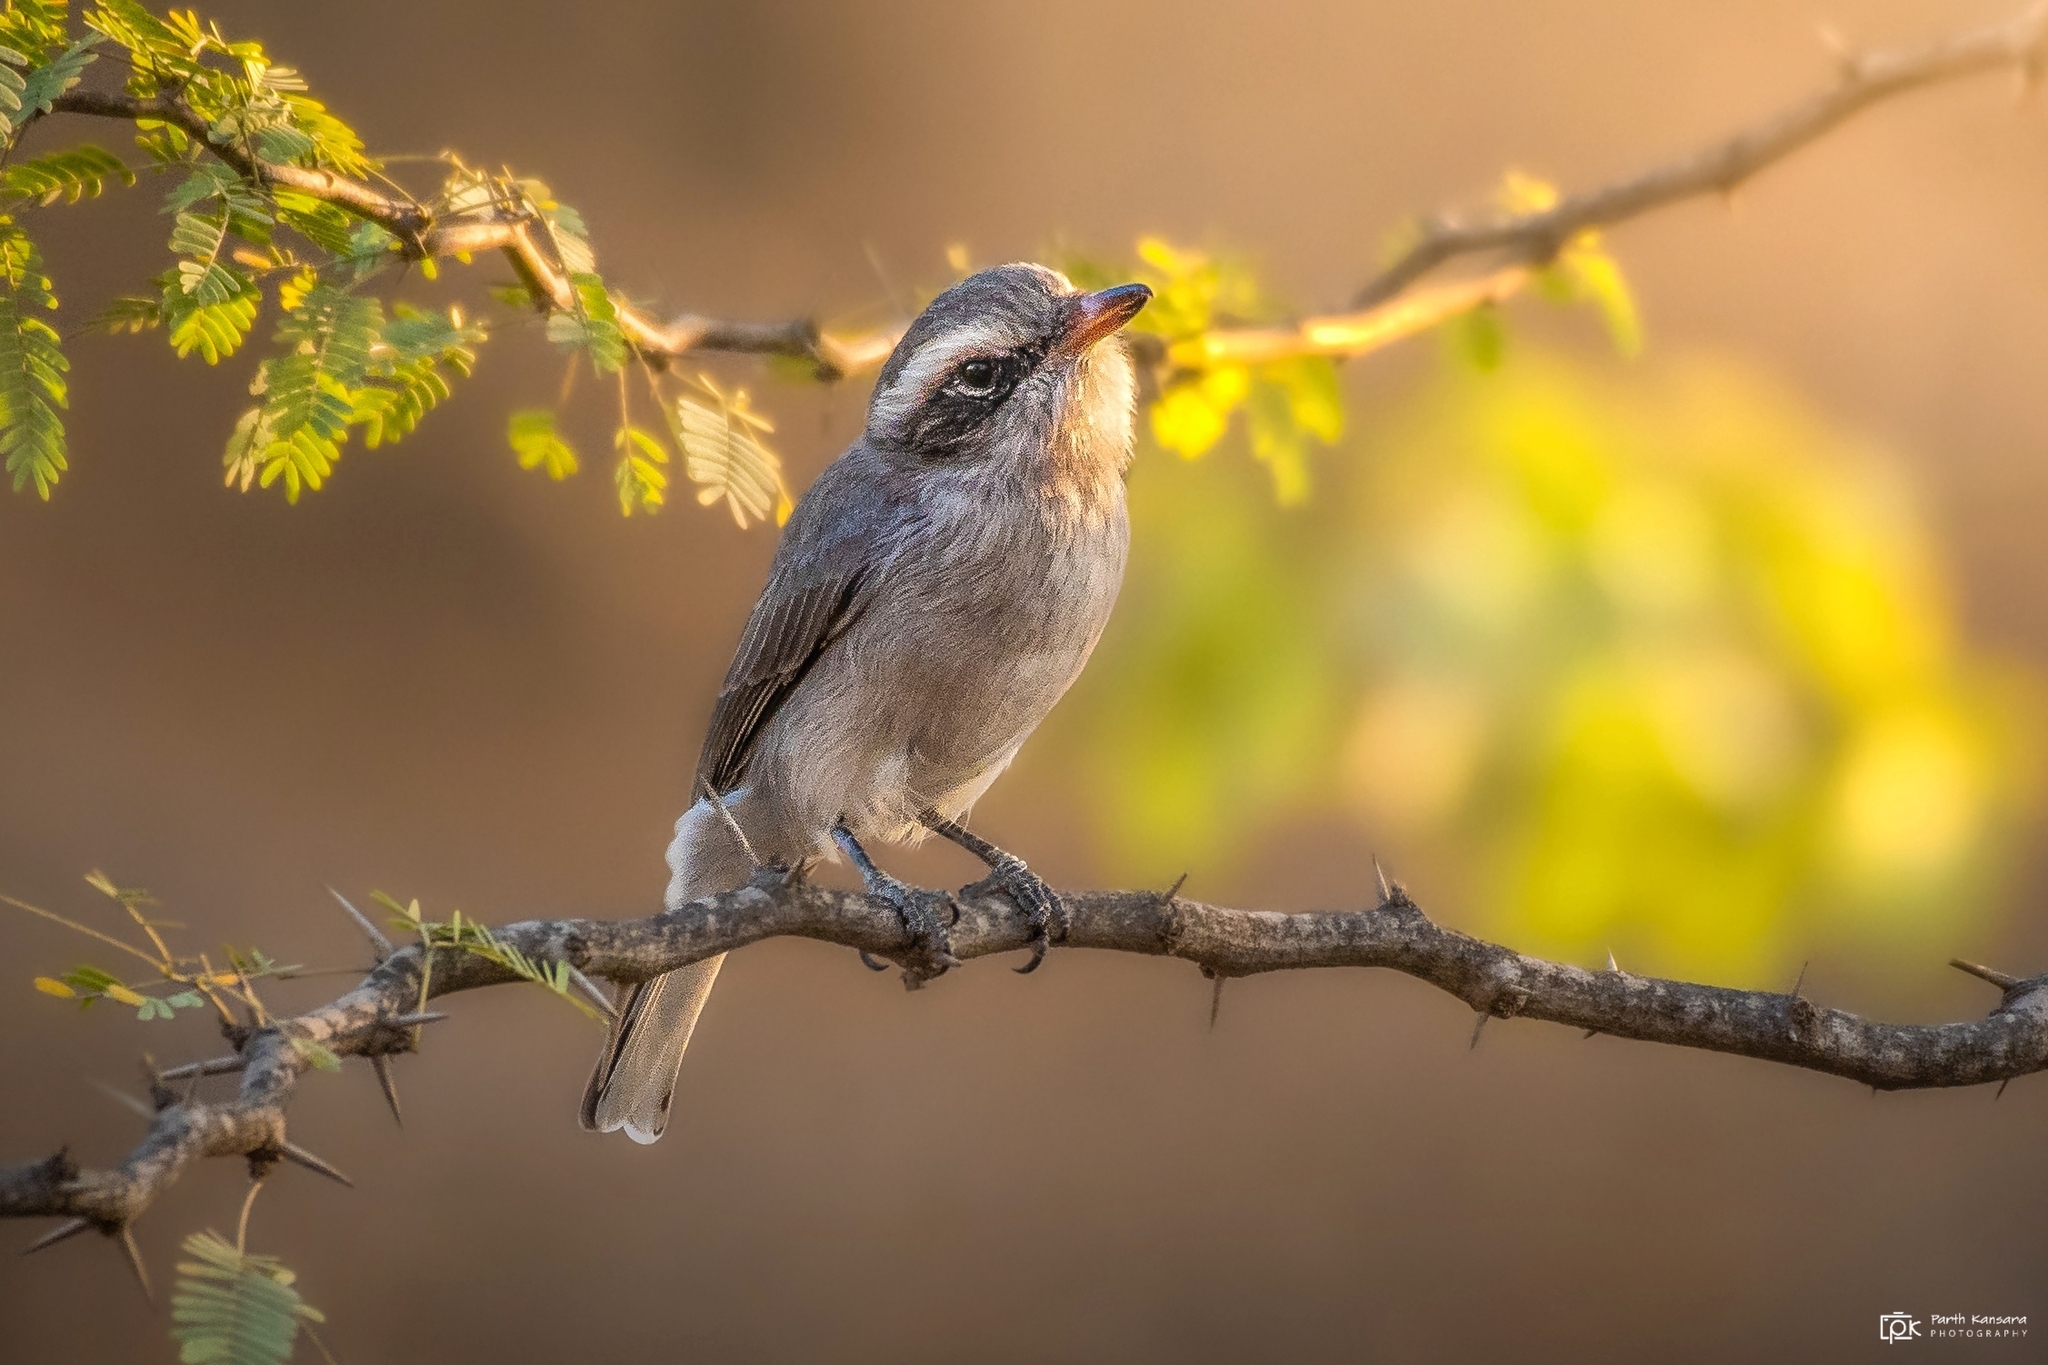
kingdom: Animalia
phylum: Chordata
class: Aves
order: Passeriformes
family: Tephrodornithidae
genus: Tephrodornis
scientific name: Tephrodornis pondicerianus
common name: Common woodshrike
